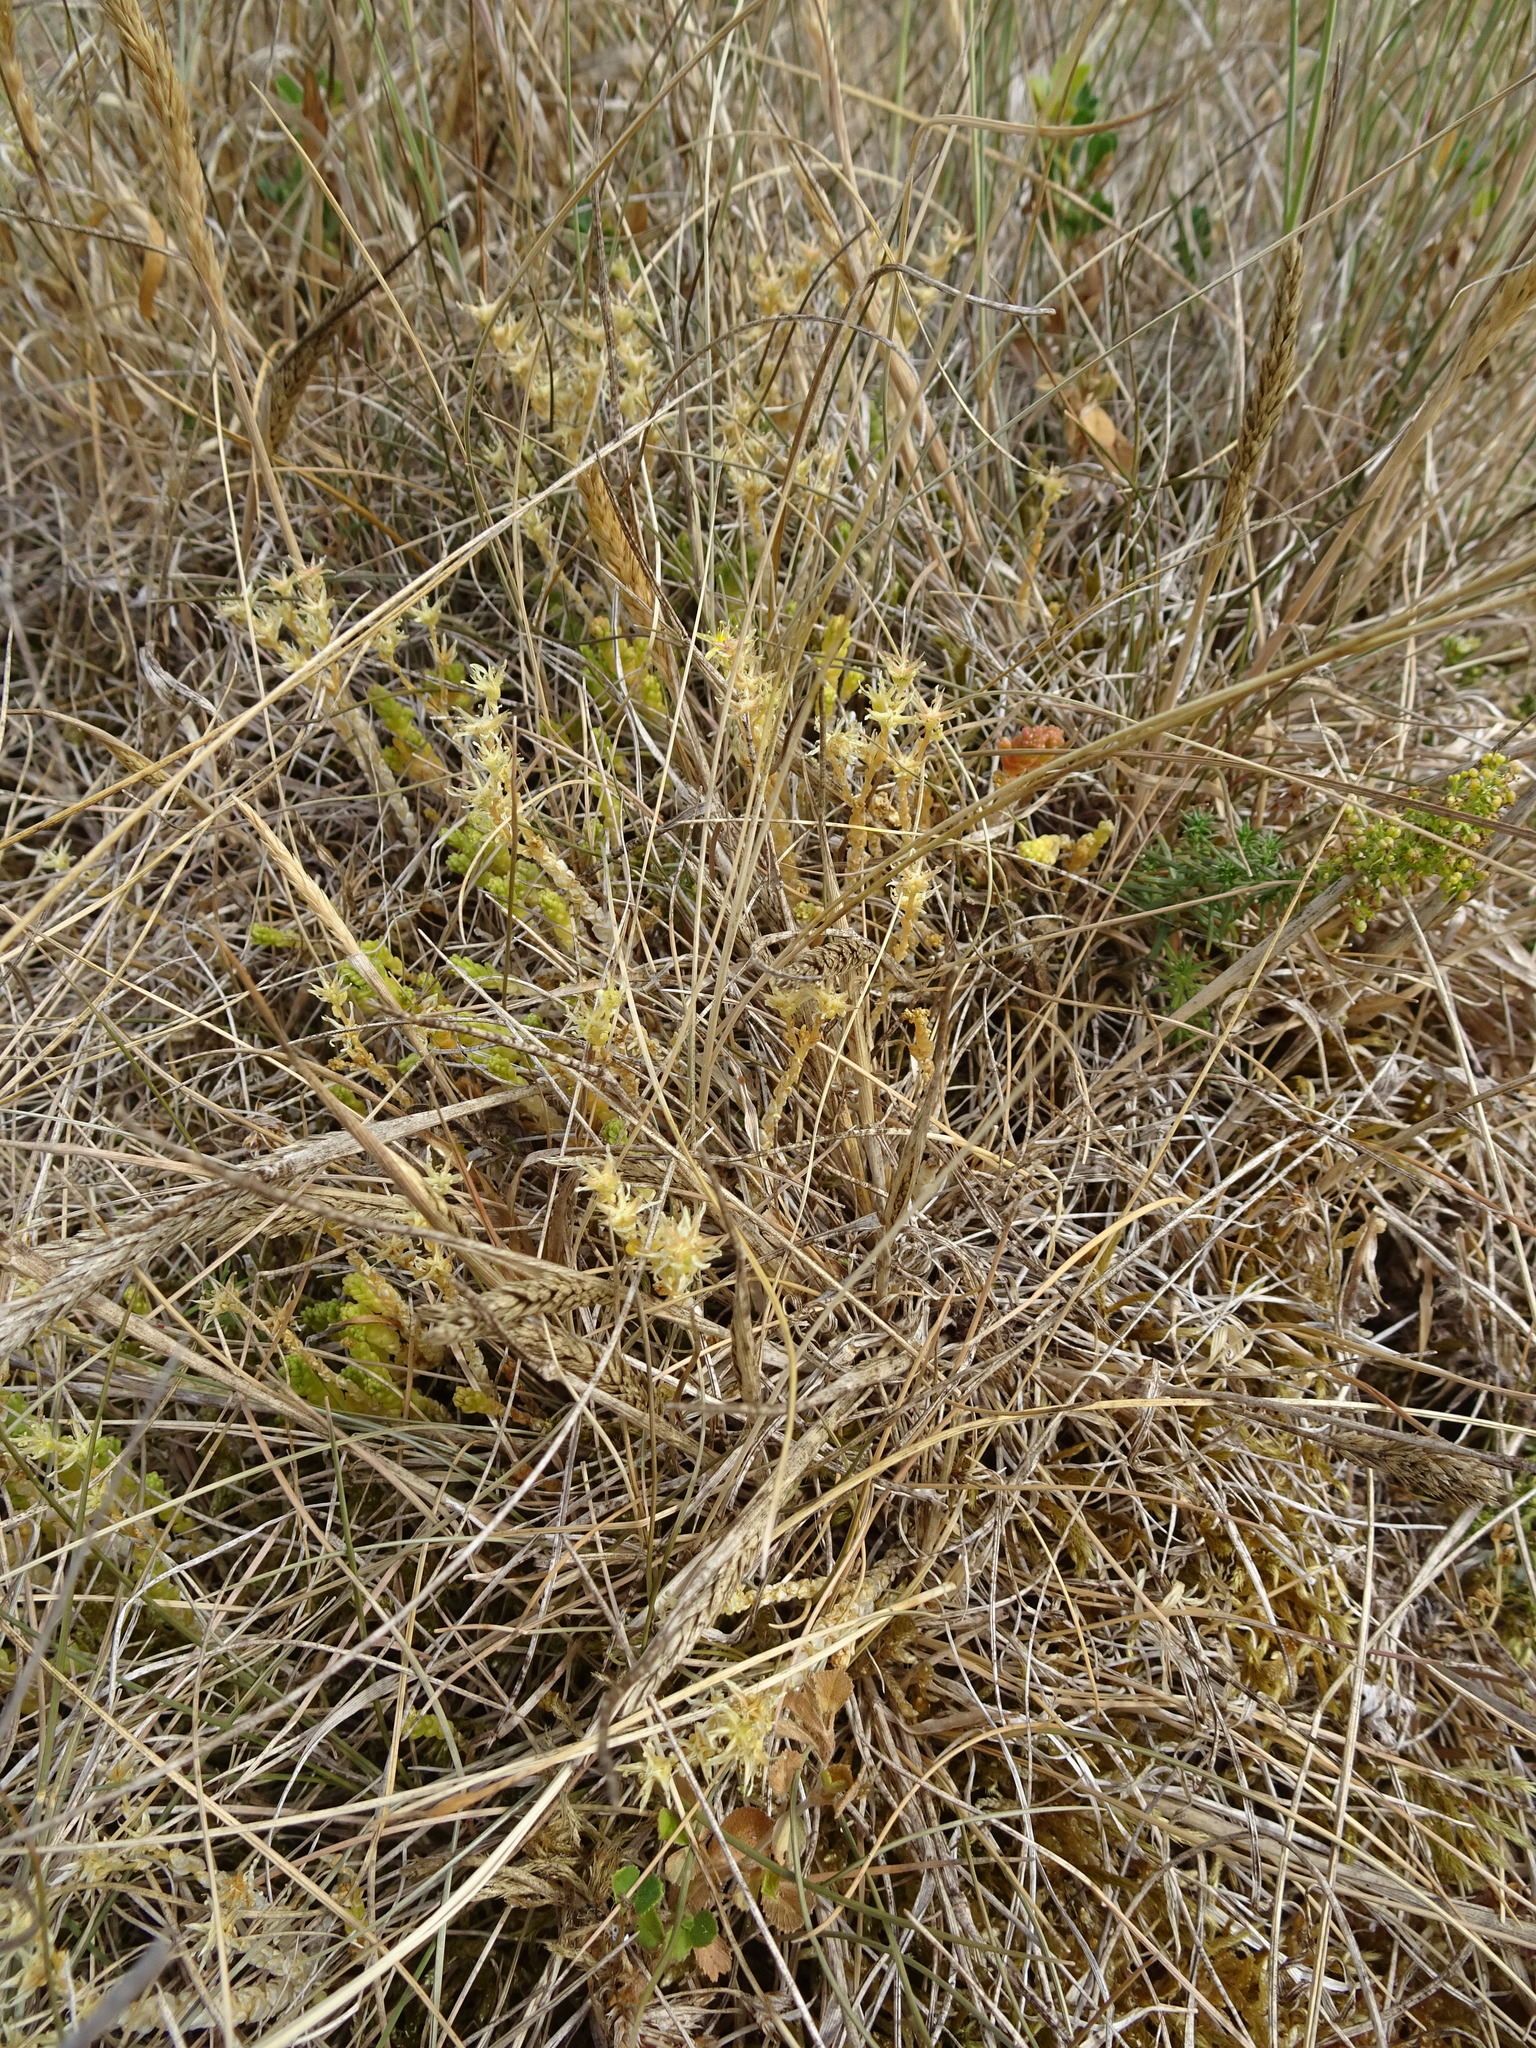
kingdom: Plantae
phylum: Tracheophyta
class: Magnoliopsida
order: Saxifragales
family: Crassulaceae
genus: Sedum
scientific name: Sedum acre
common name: Biting stonecrop
